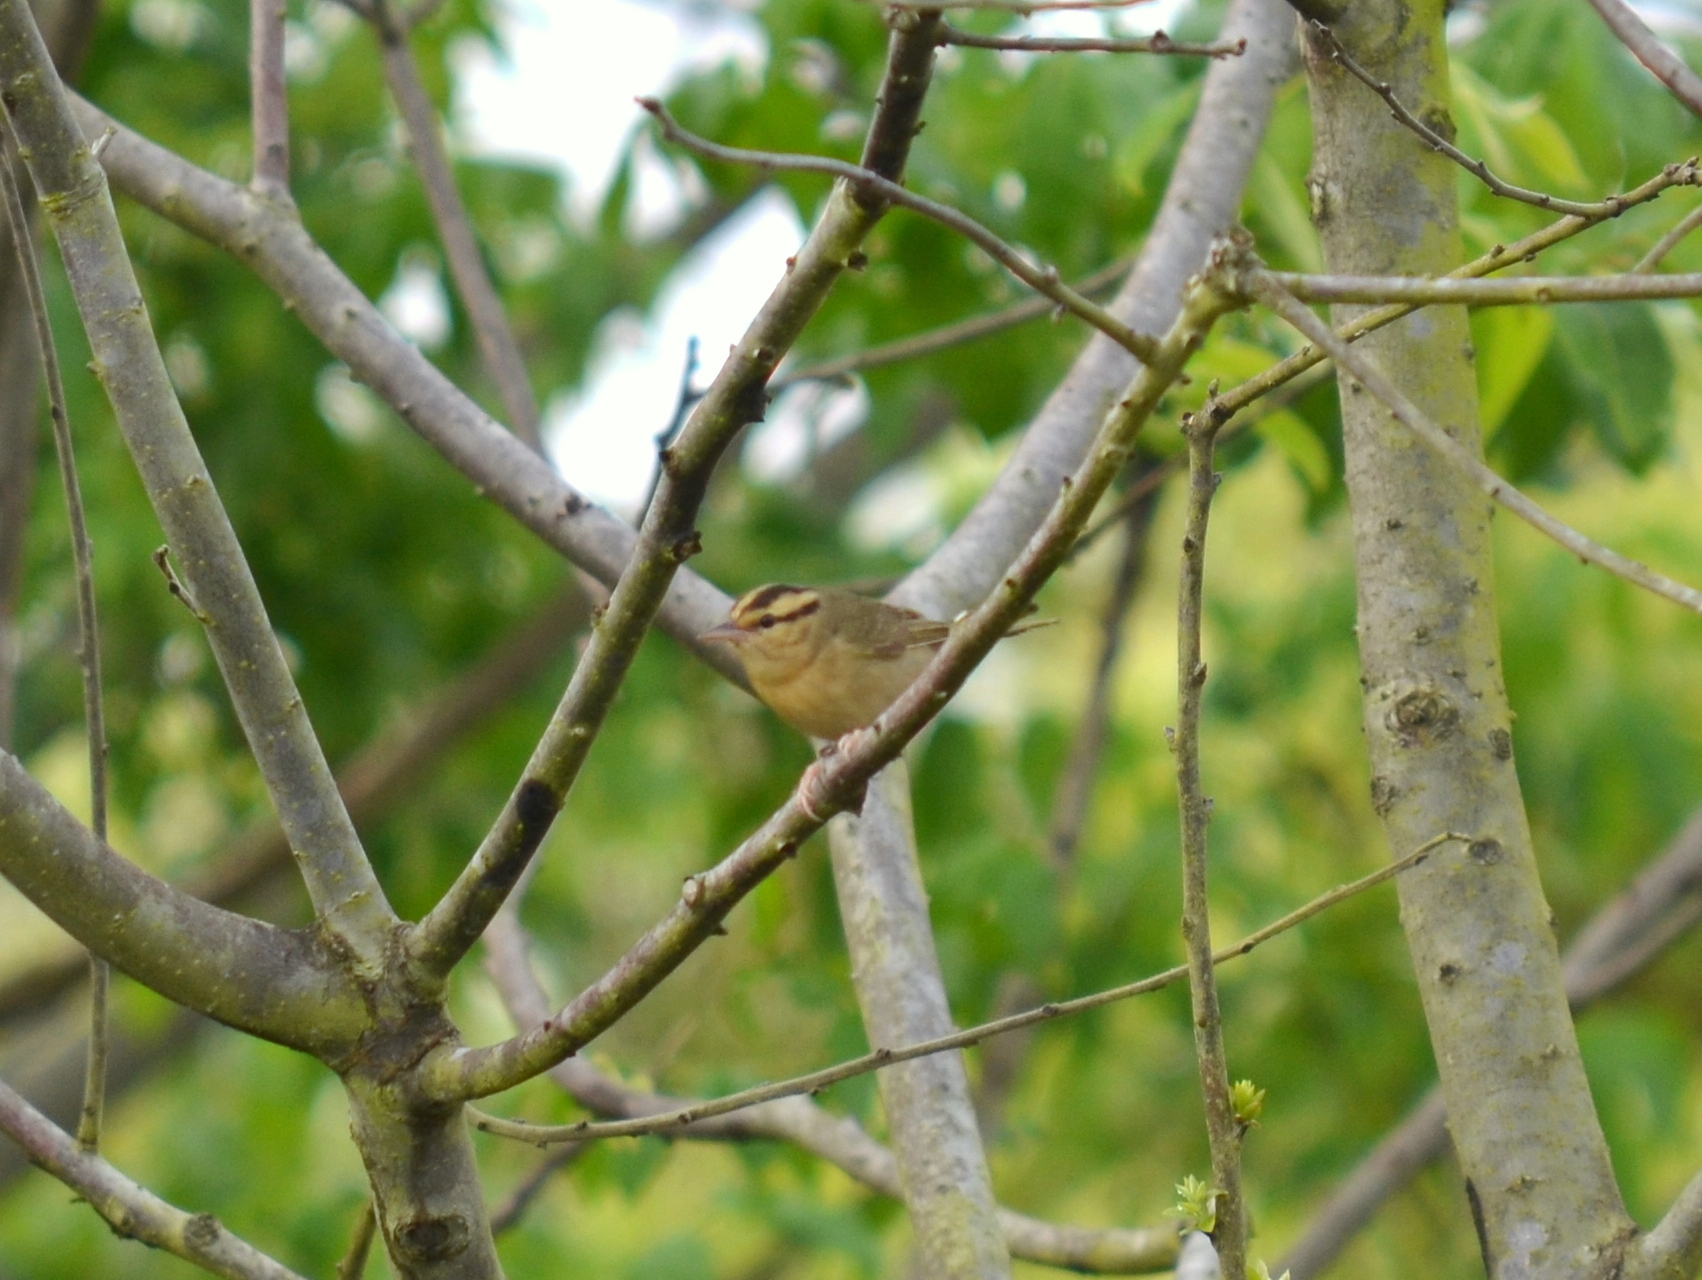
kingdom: Animalia
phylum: Chordata
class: Aves
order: Passeriformes
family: Parulidae
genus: Helmitheros
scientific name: Helmitheros vermivorum
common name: Worm-eating warbler
